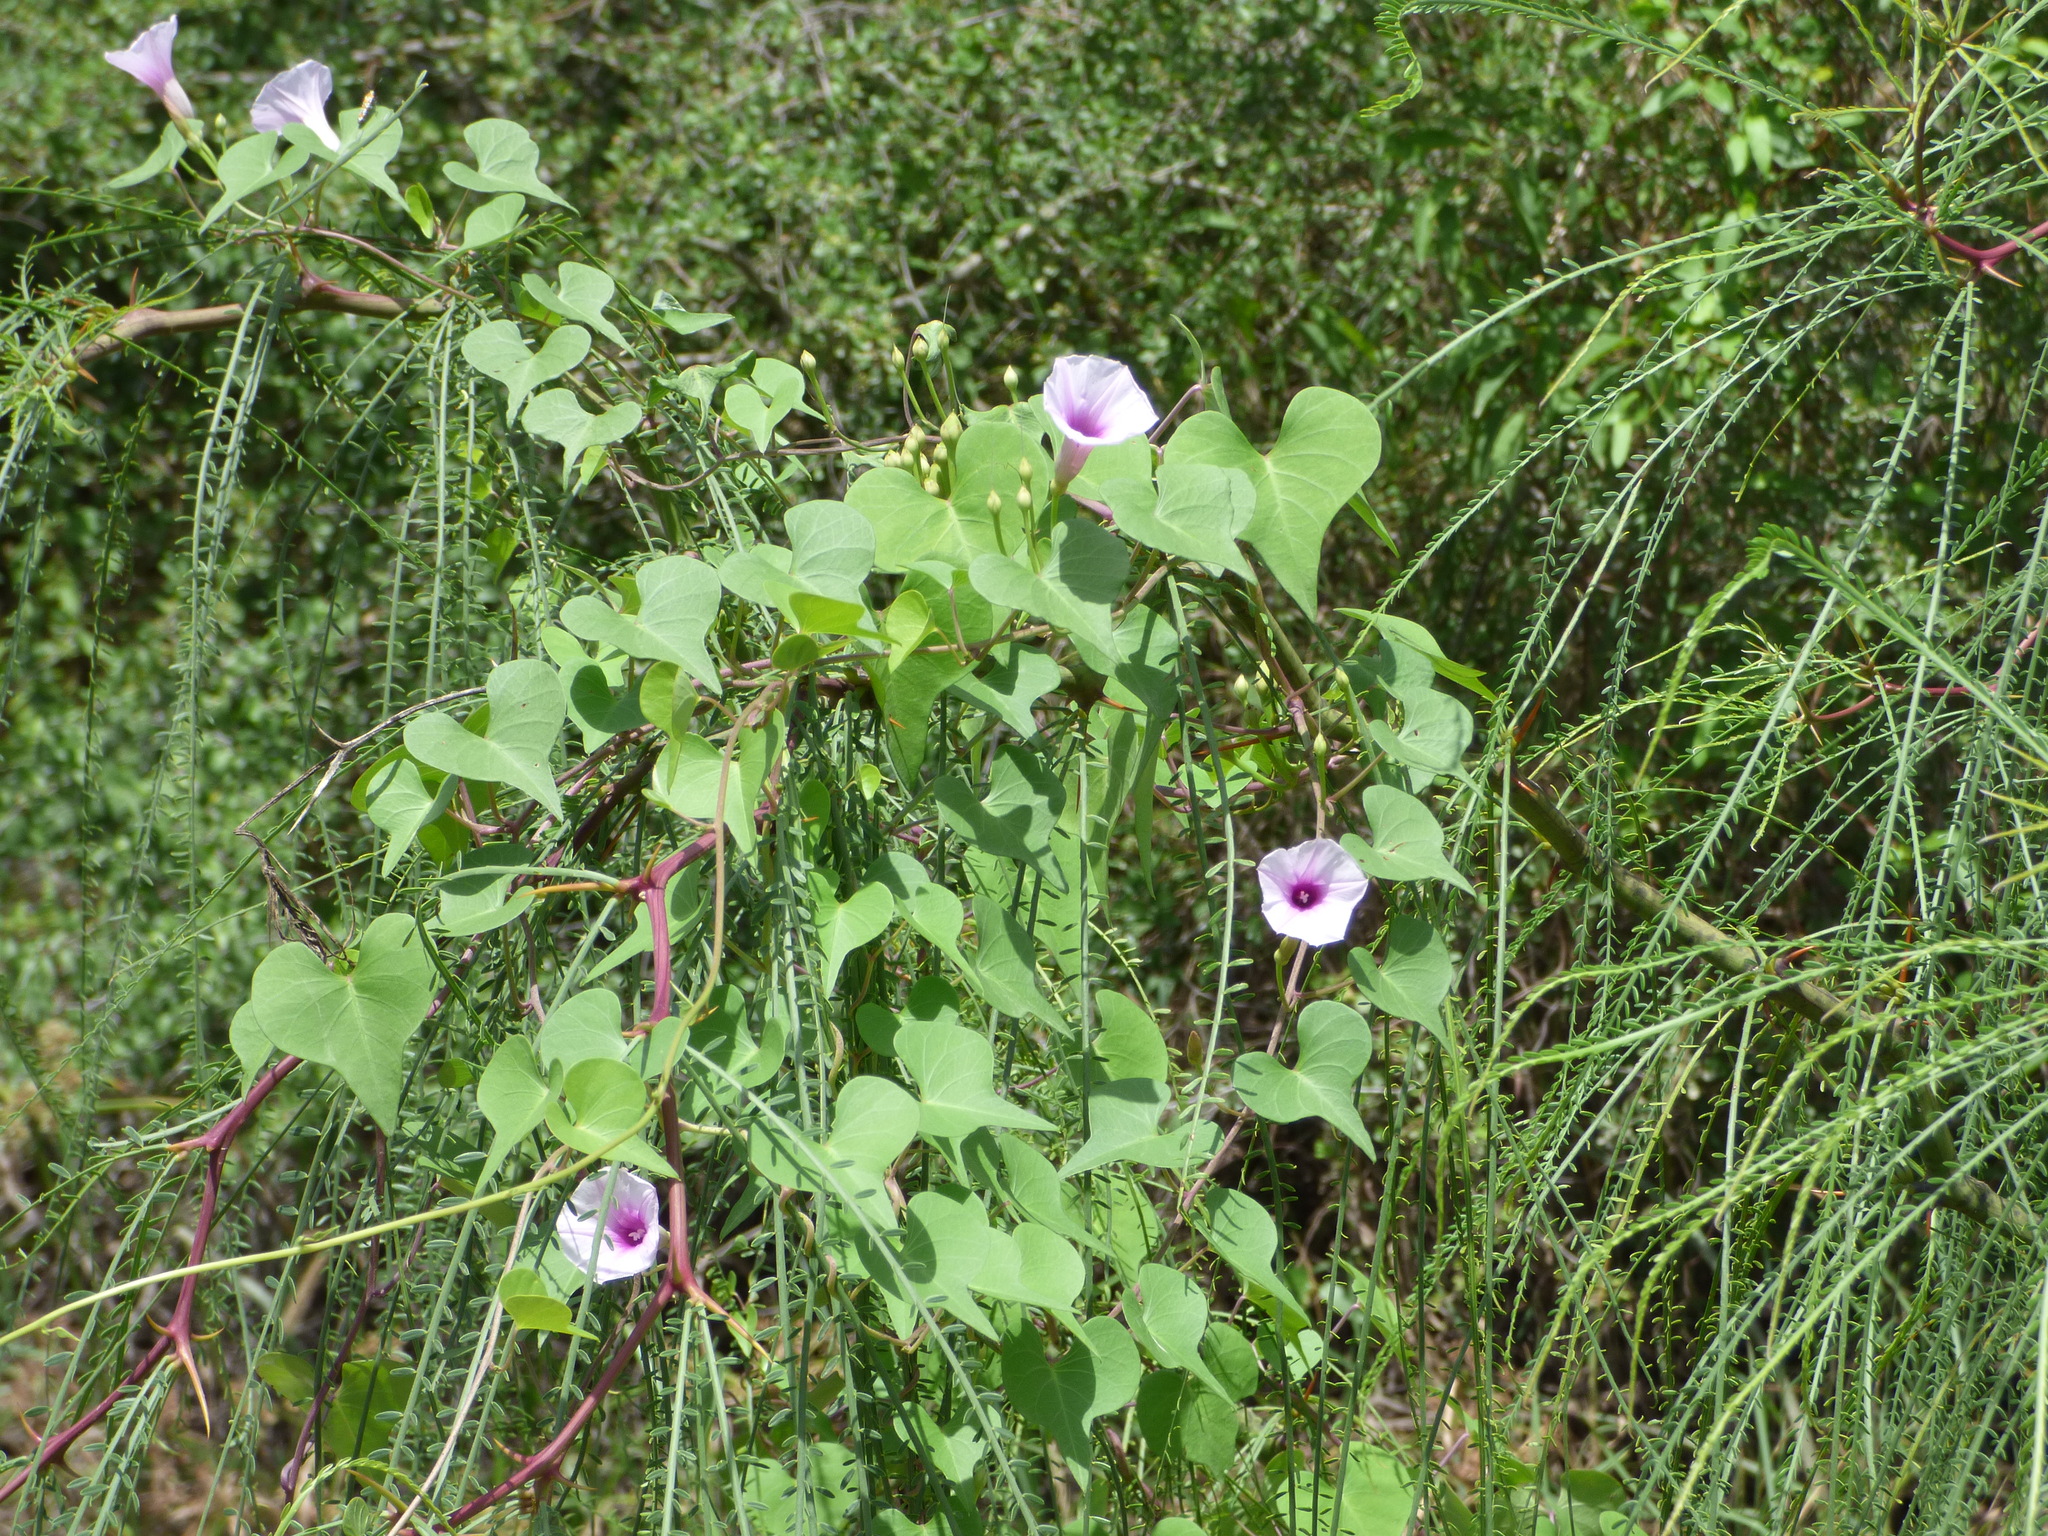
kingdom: Plantae
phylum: Tracheophyta
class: Magnoliopsida
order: Solanales
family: Convolvulaceae
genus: Ipomoea
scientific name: Ipomoea amnicola
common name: Redcenter morning-glory
